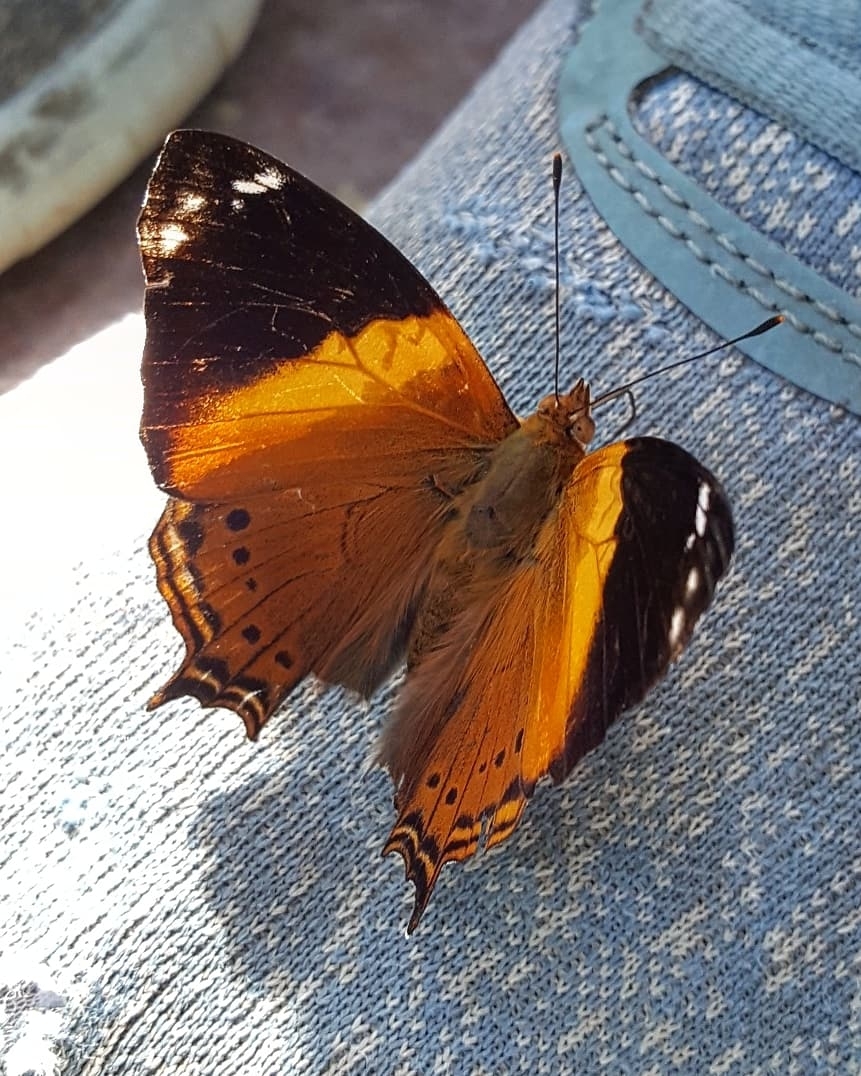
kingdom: Animalia
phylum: Arthropoda
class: Insecta
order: Lepidoptera
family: Nymphalidae
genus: Hypanartia
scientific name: Hypanartia godmanii
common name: Godman's mapwing
